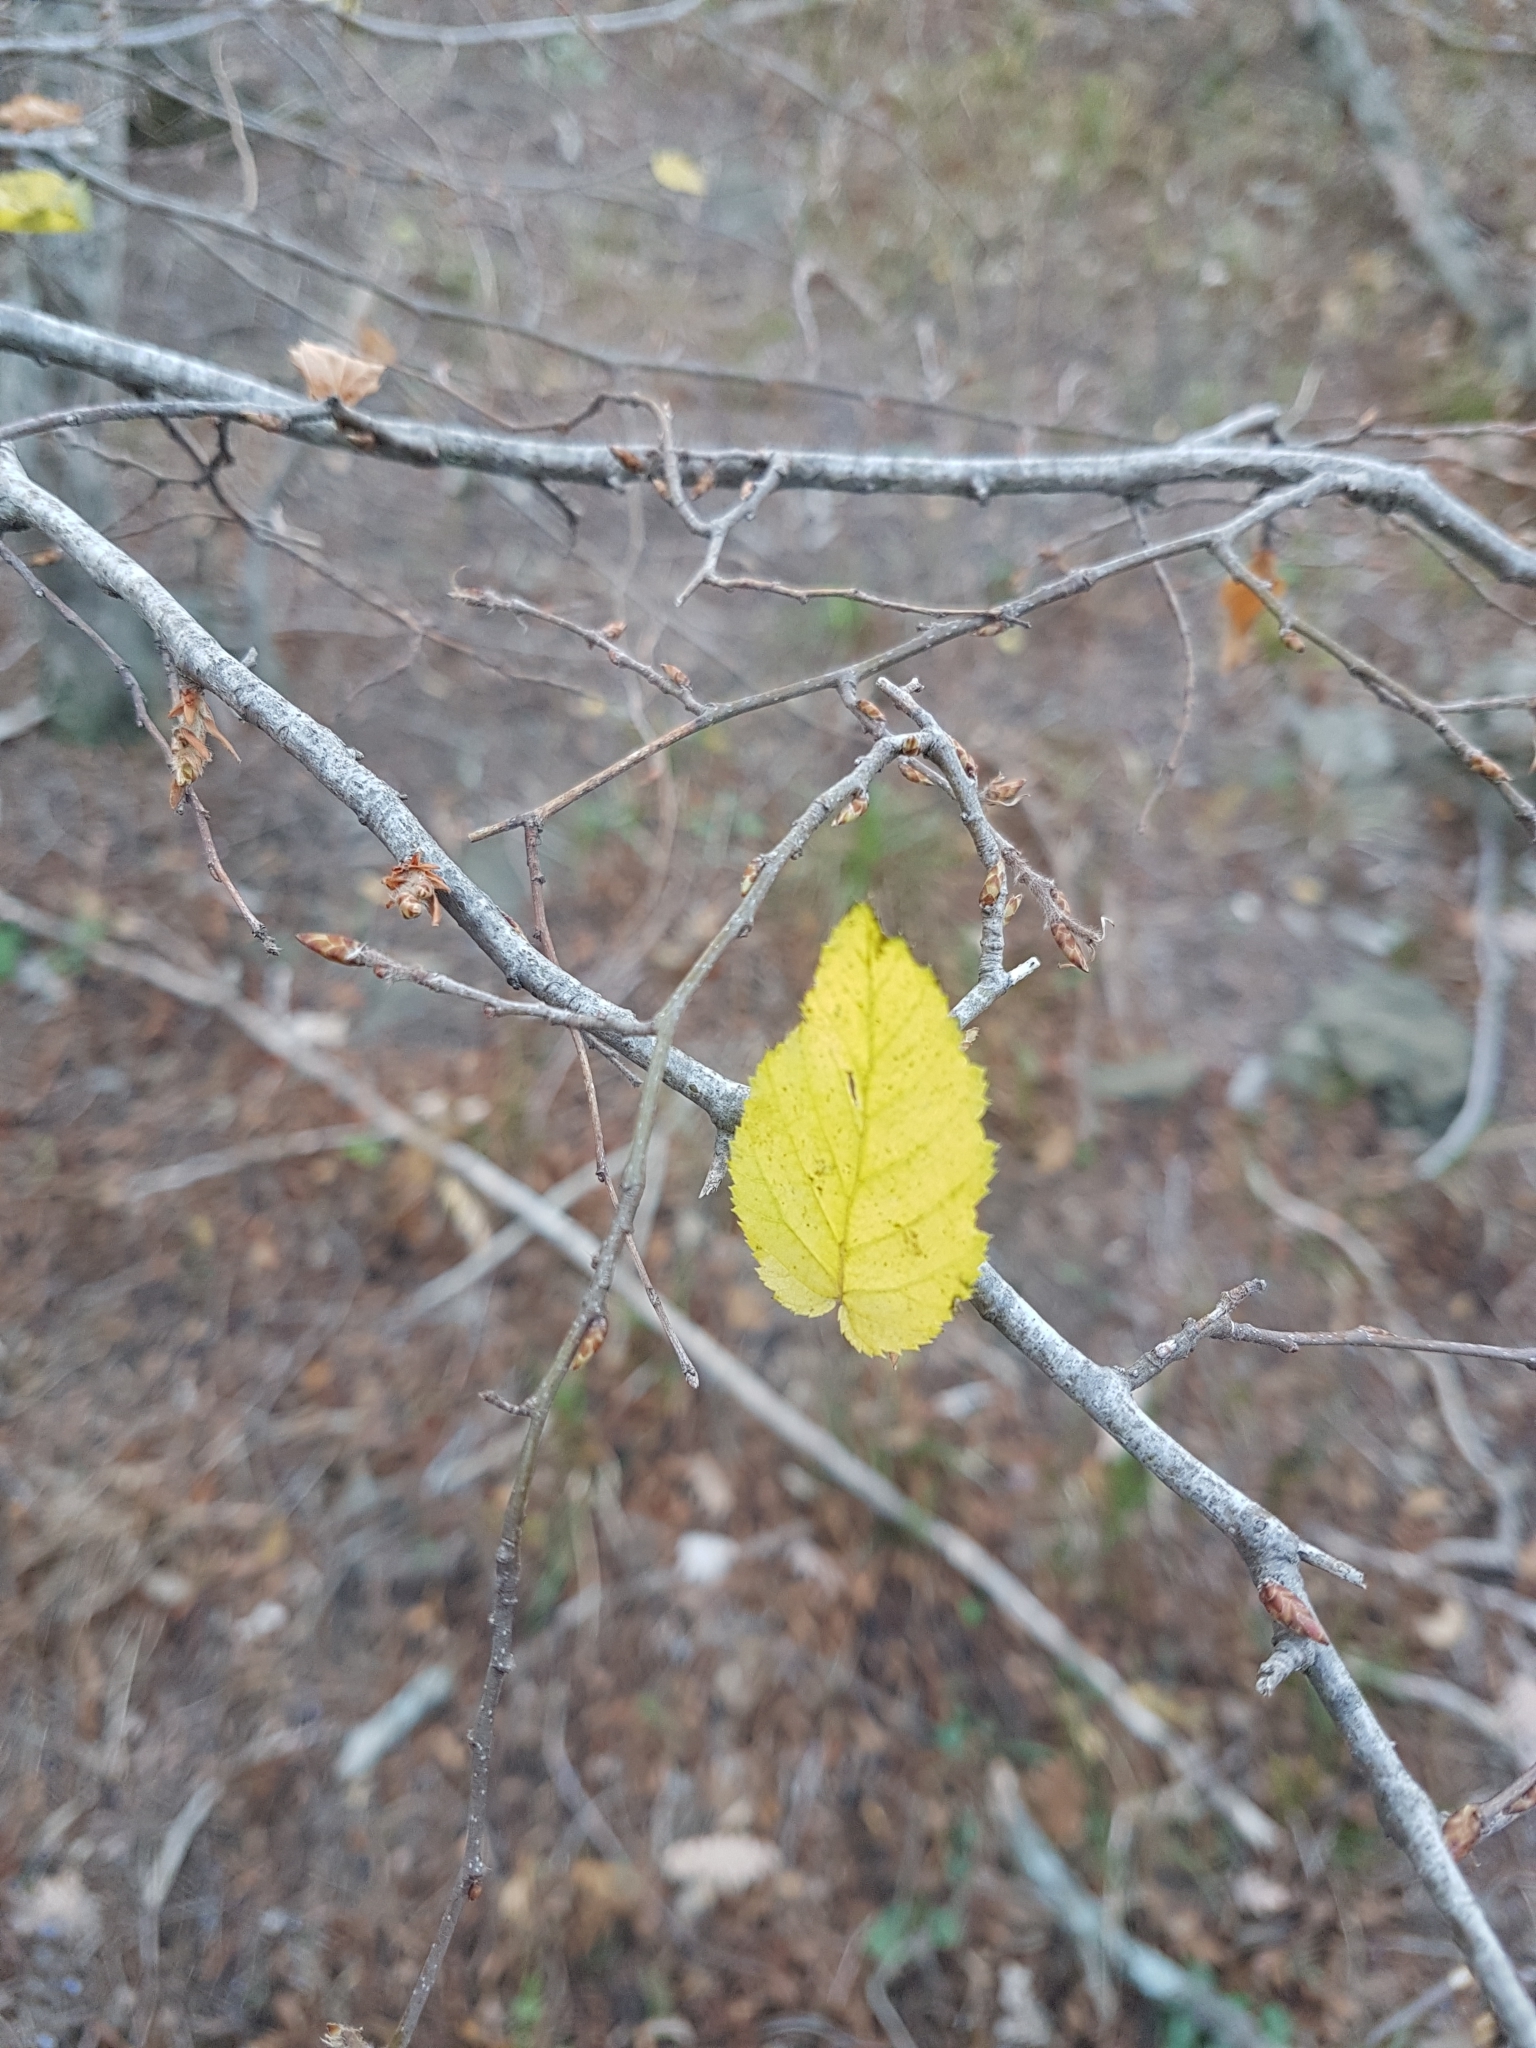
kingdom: Plantae
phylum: Tracheophyta
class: Magnoliopsida
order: Fagales
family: Betulaceae
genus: Carpinus
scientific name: Carpinus orientalis
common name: Eastern hornbeam
